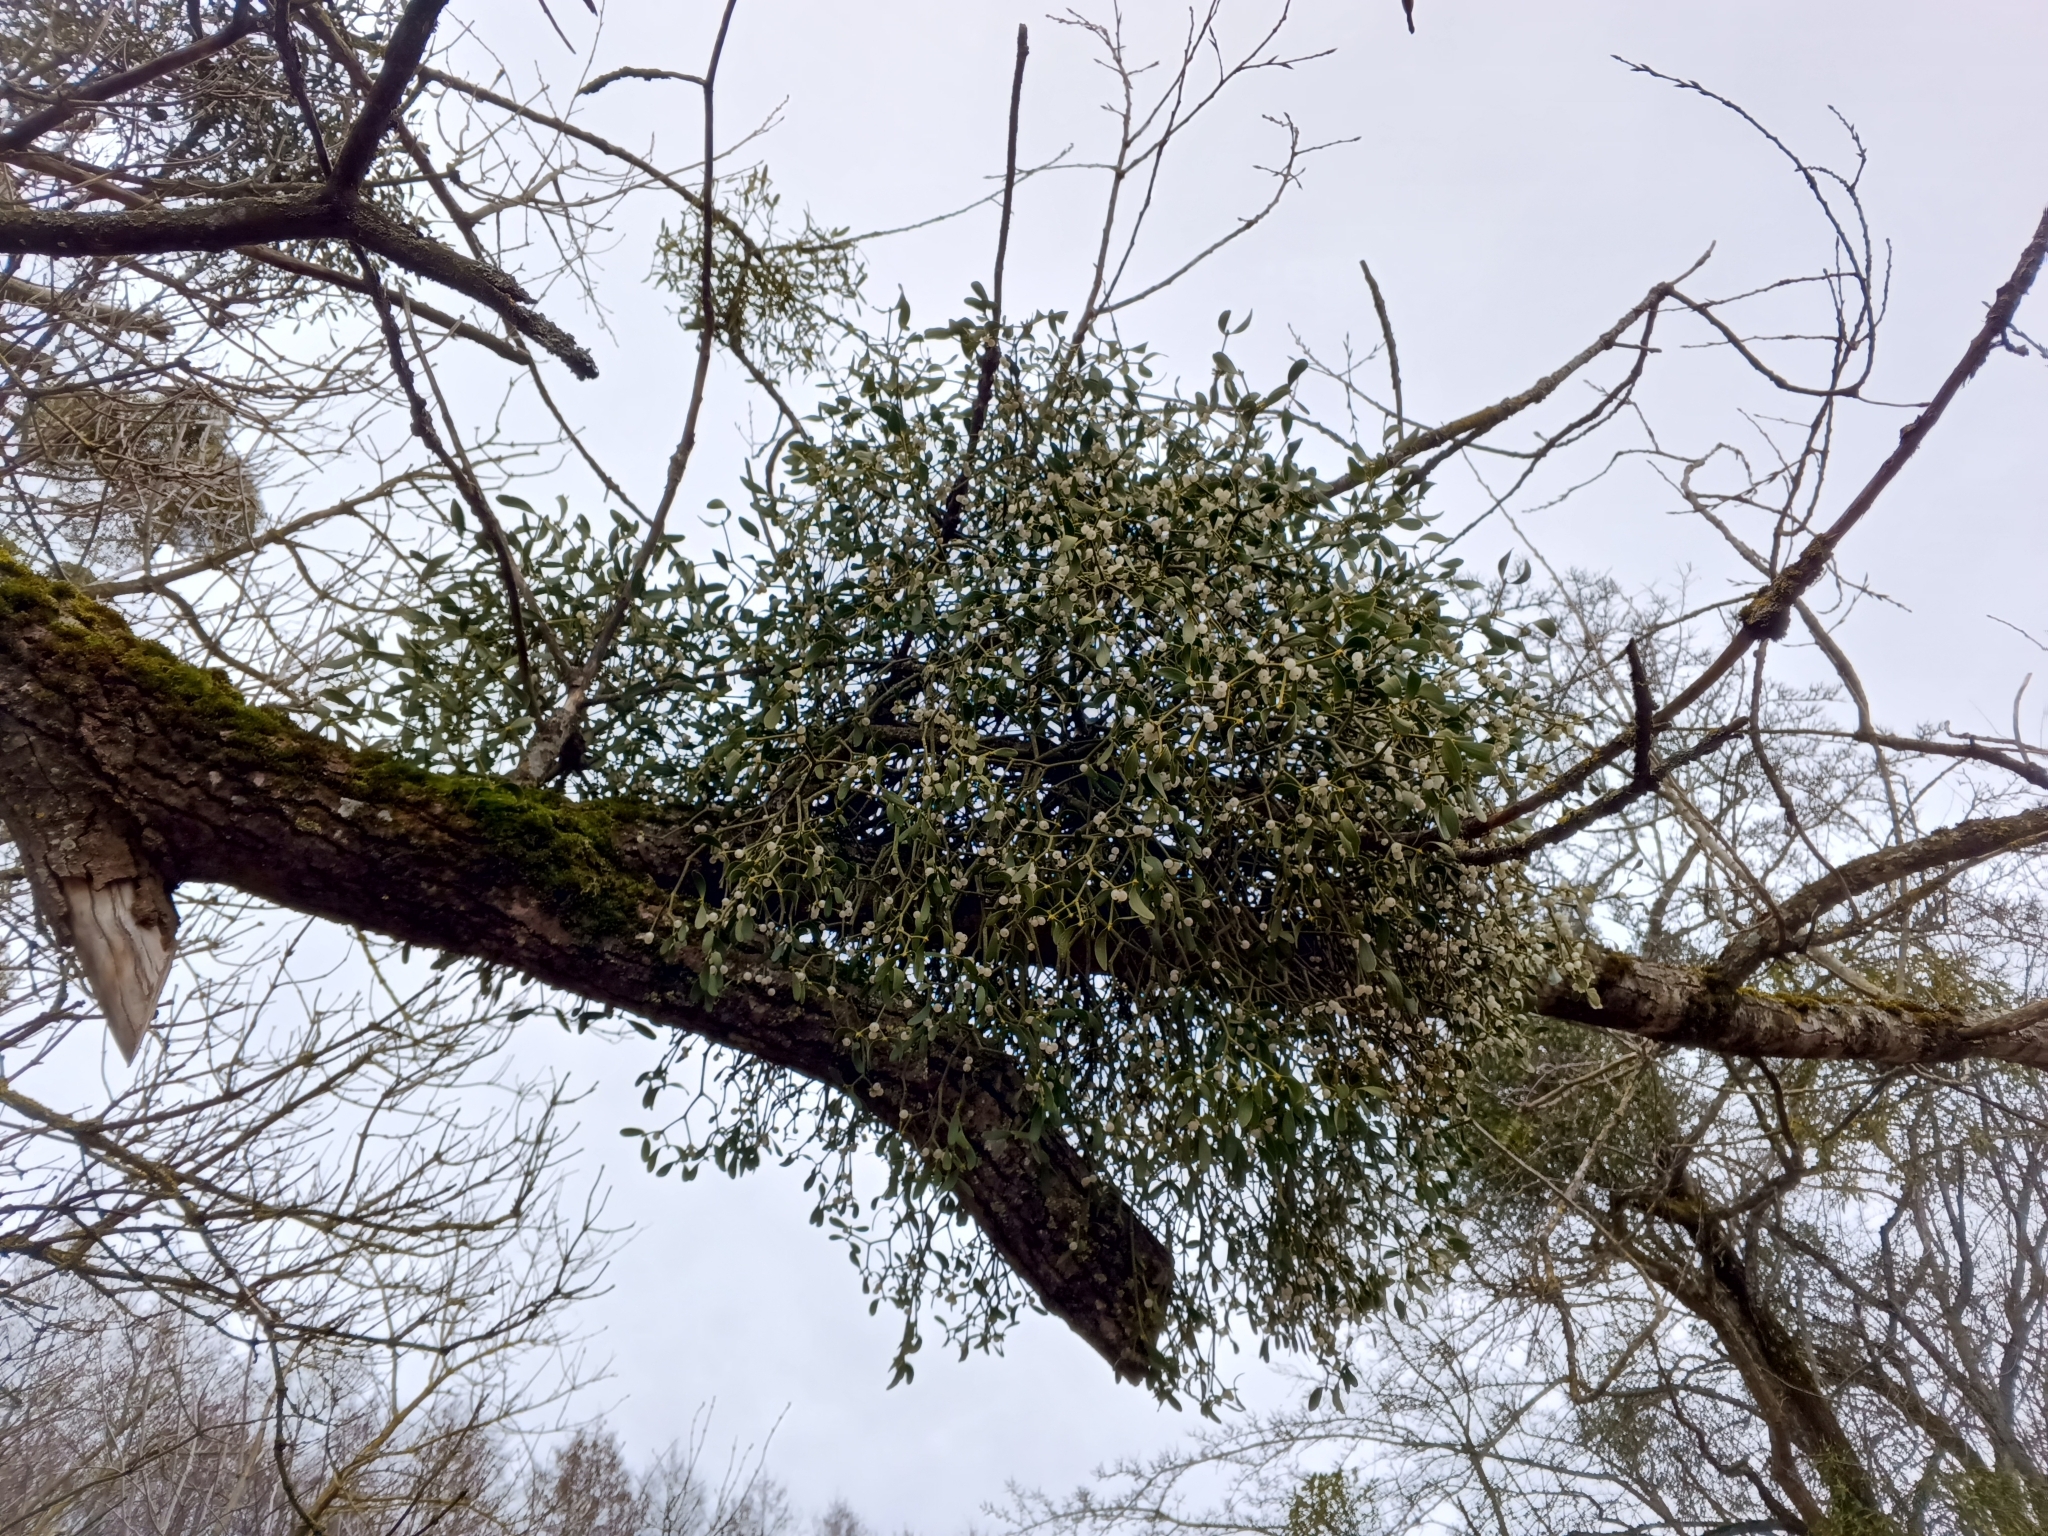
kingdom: Plantae
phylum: Tracheophyta
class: Magnoliopsida
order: Santalales
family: Viscaceae
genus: Viscum
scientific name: Viscum album
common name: Mistletoe
